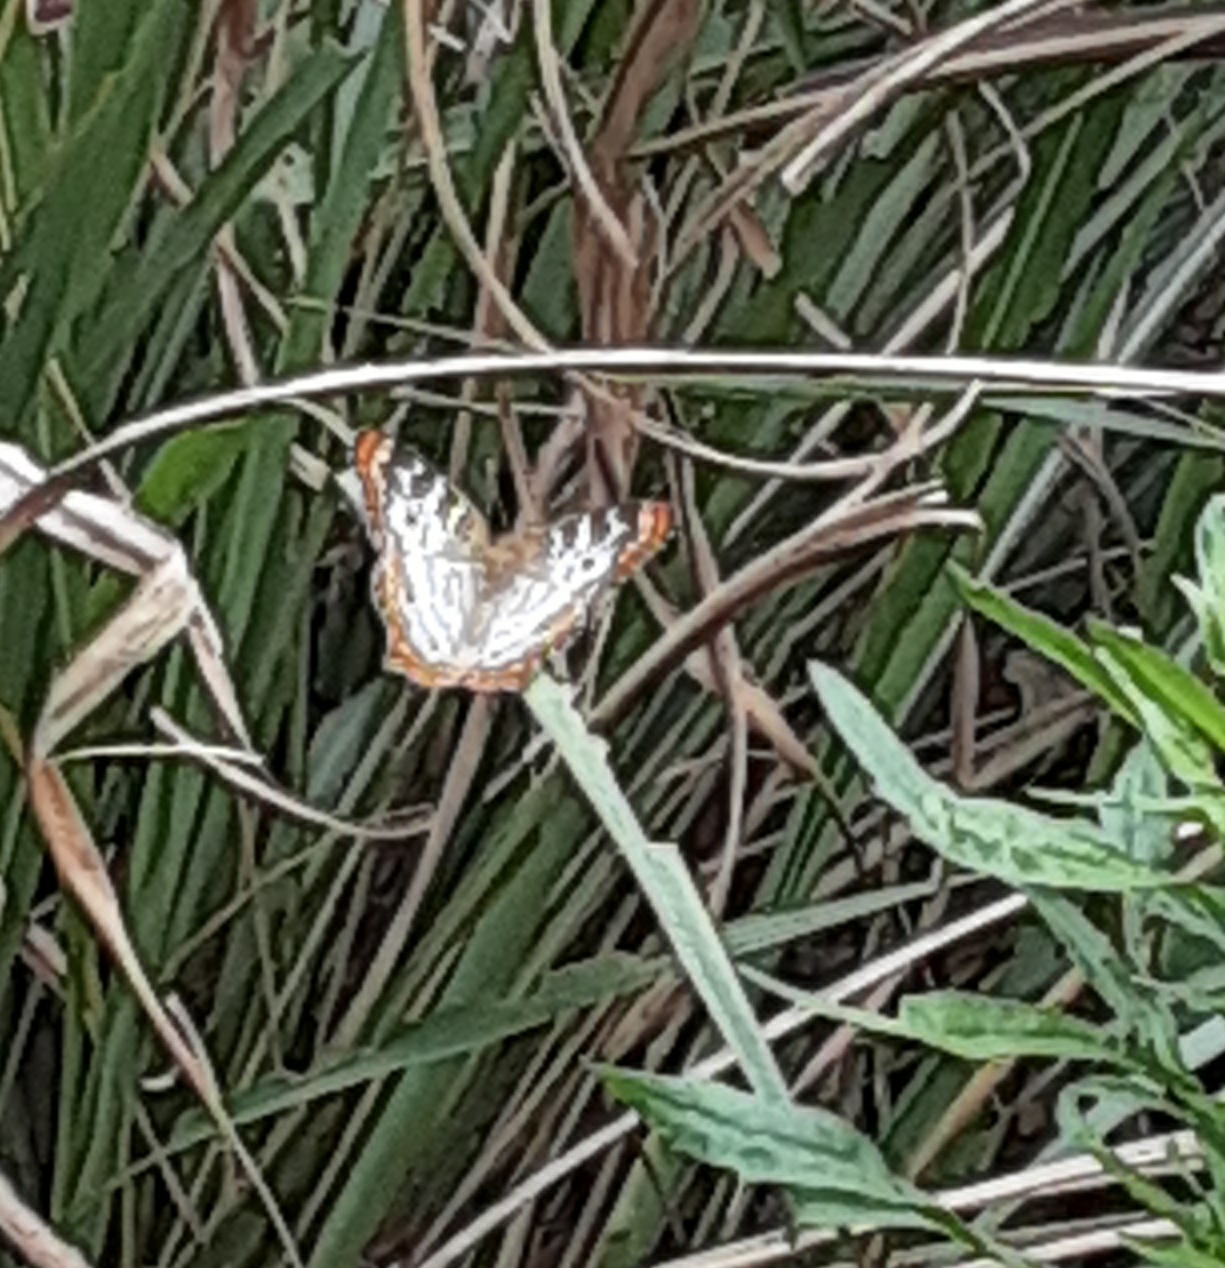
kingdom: Animalia
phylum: Arthropoda
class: Insecta
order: Lepidoptera
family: Nymphalidae
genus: Anartia
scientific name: Anartia jatrophae
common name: White peacock
